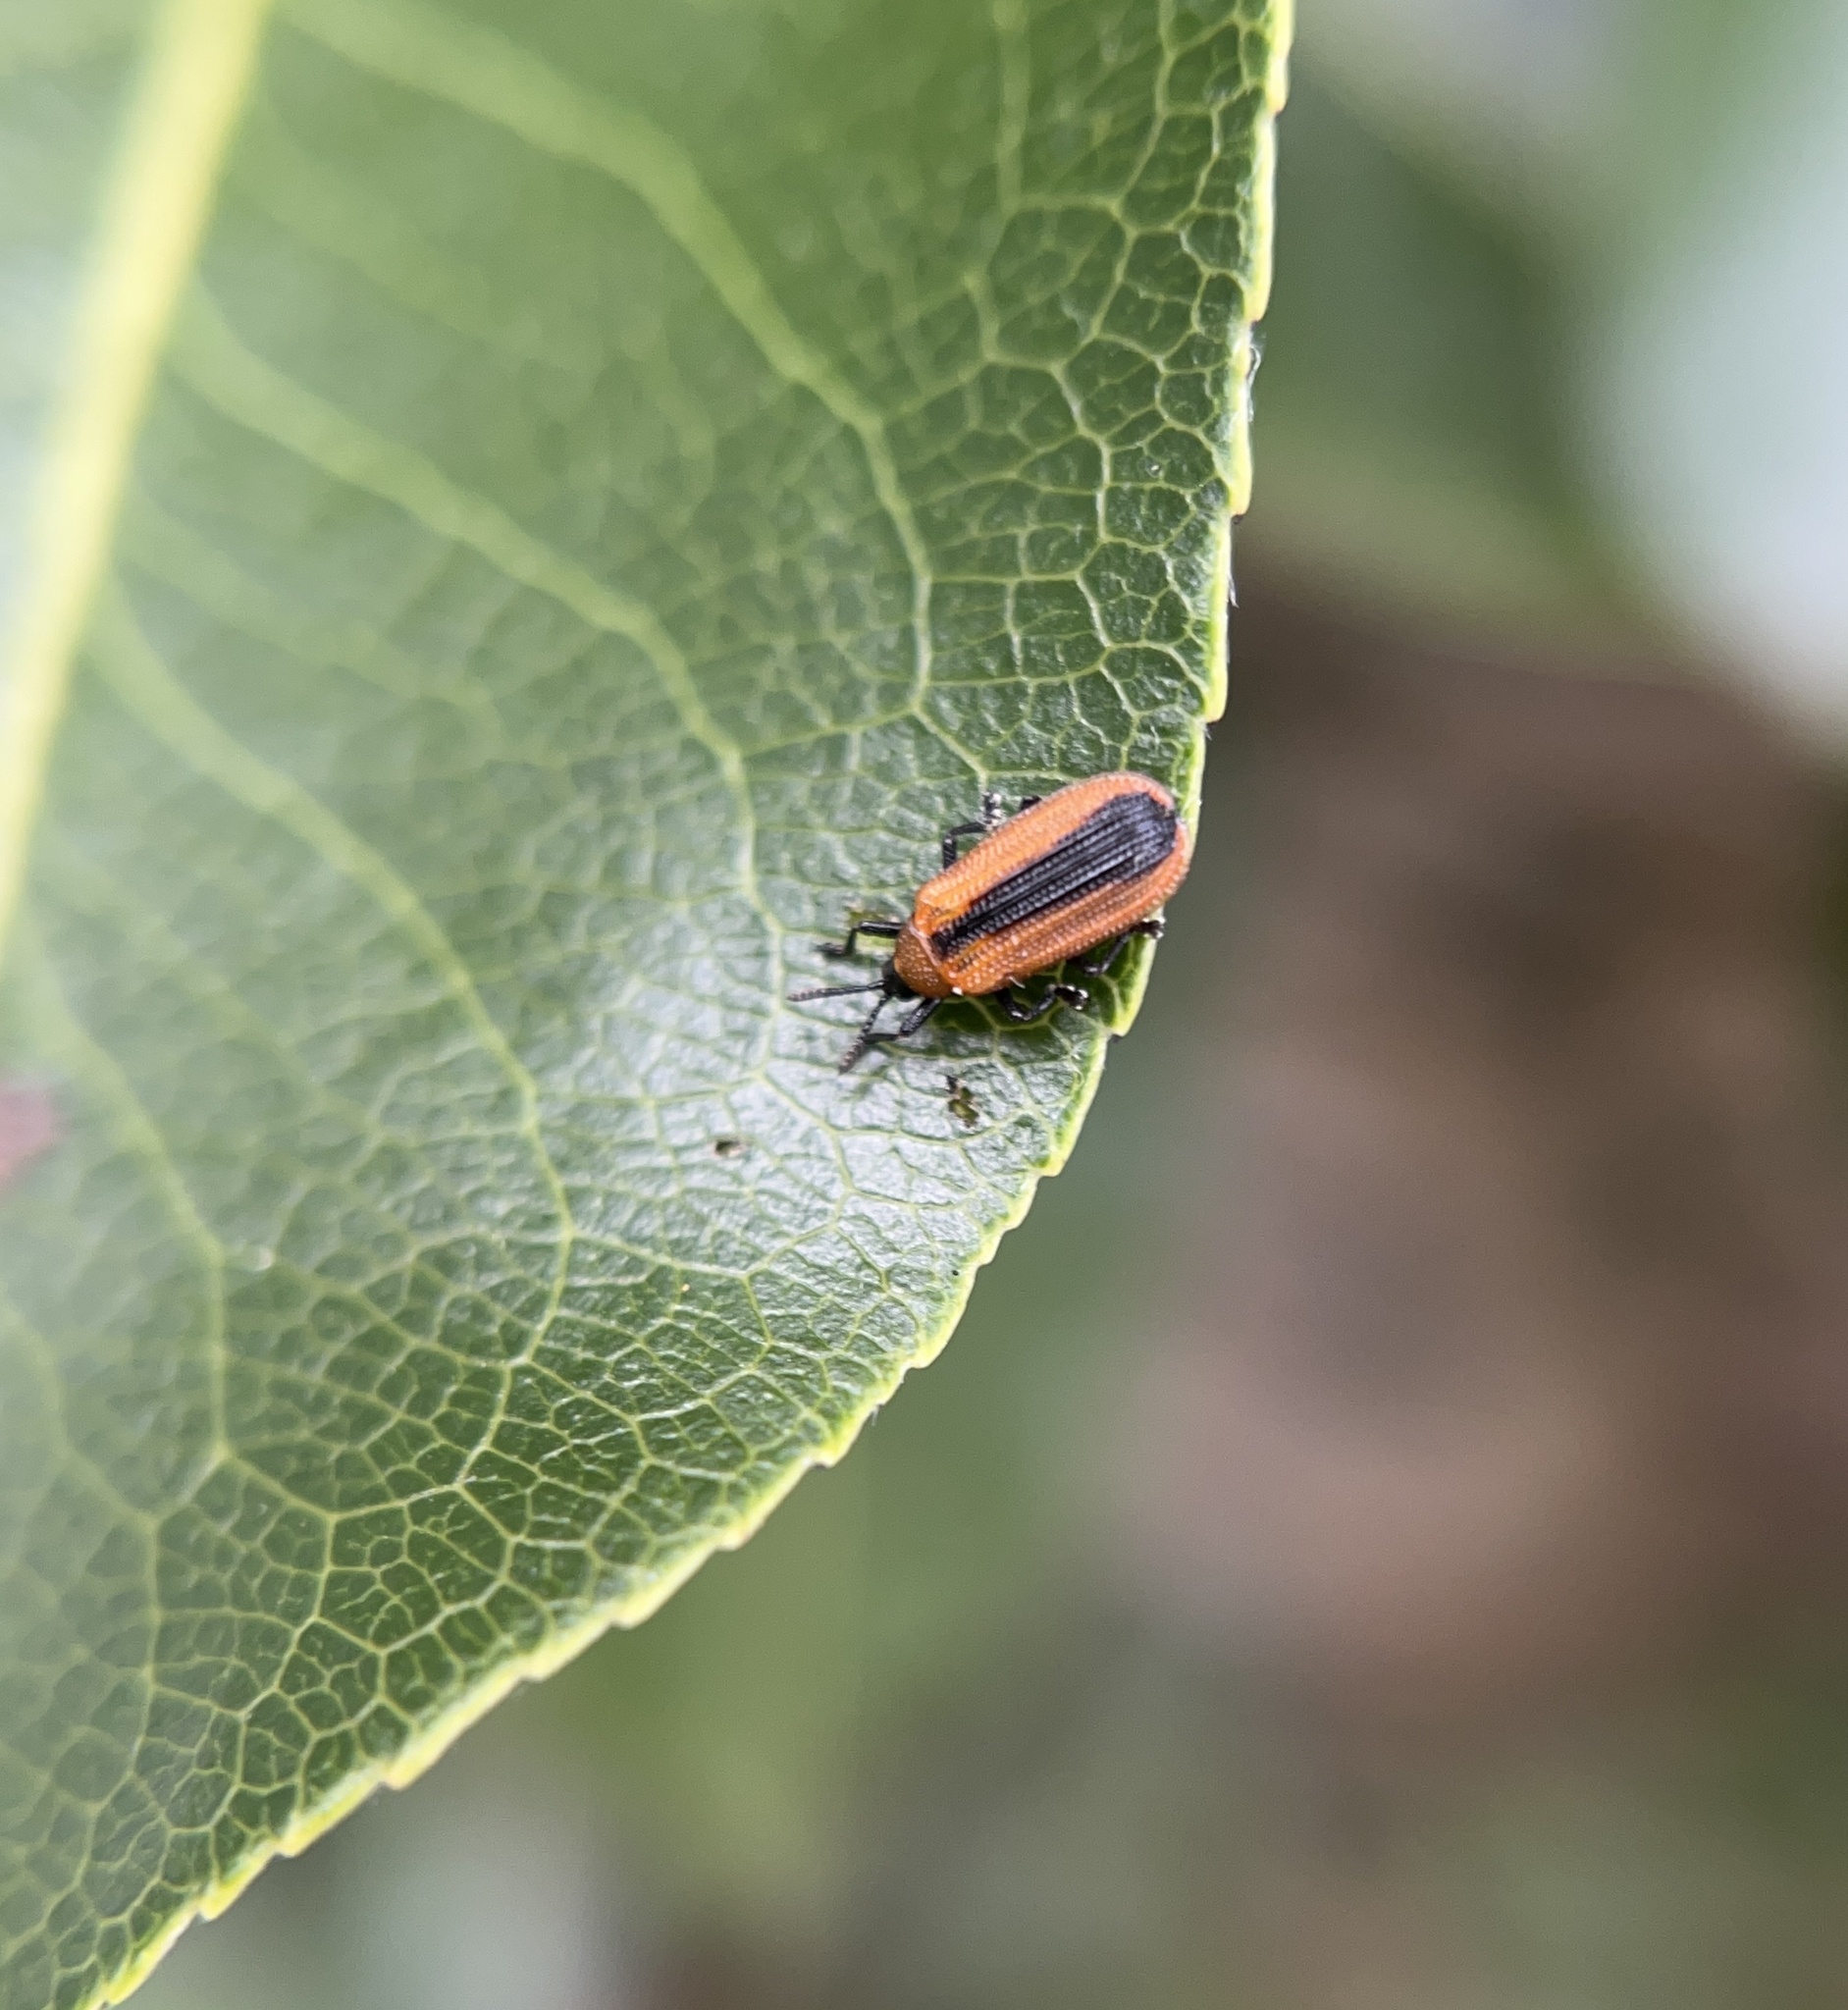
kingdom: Animalia
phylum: Arthropoda
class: Insecta
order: Coleoptera
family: Chrysomelidae
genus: Odontota
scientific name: Odontota dorsalis
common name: Locust leaf-miner beetle
